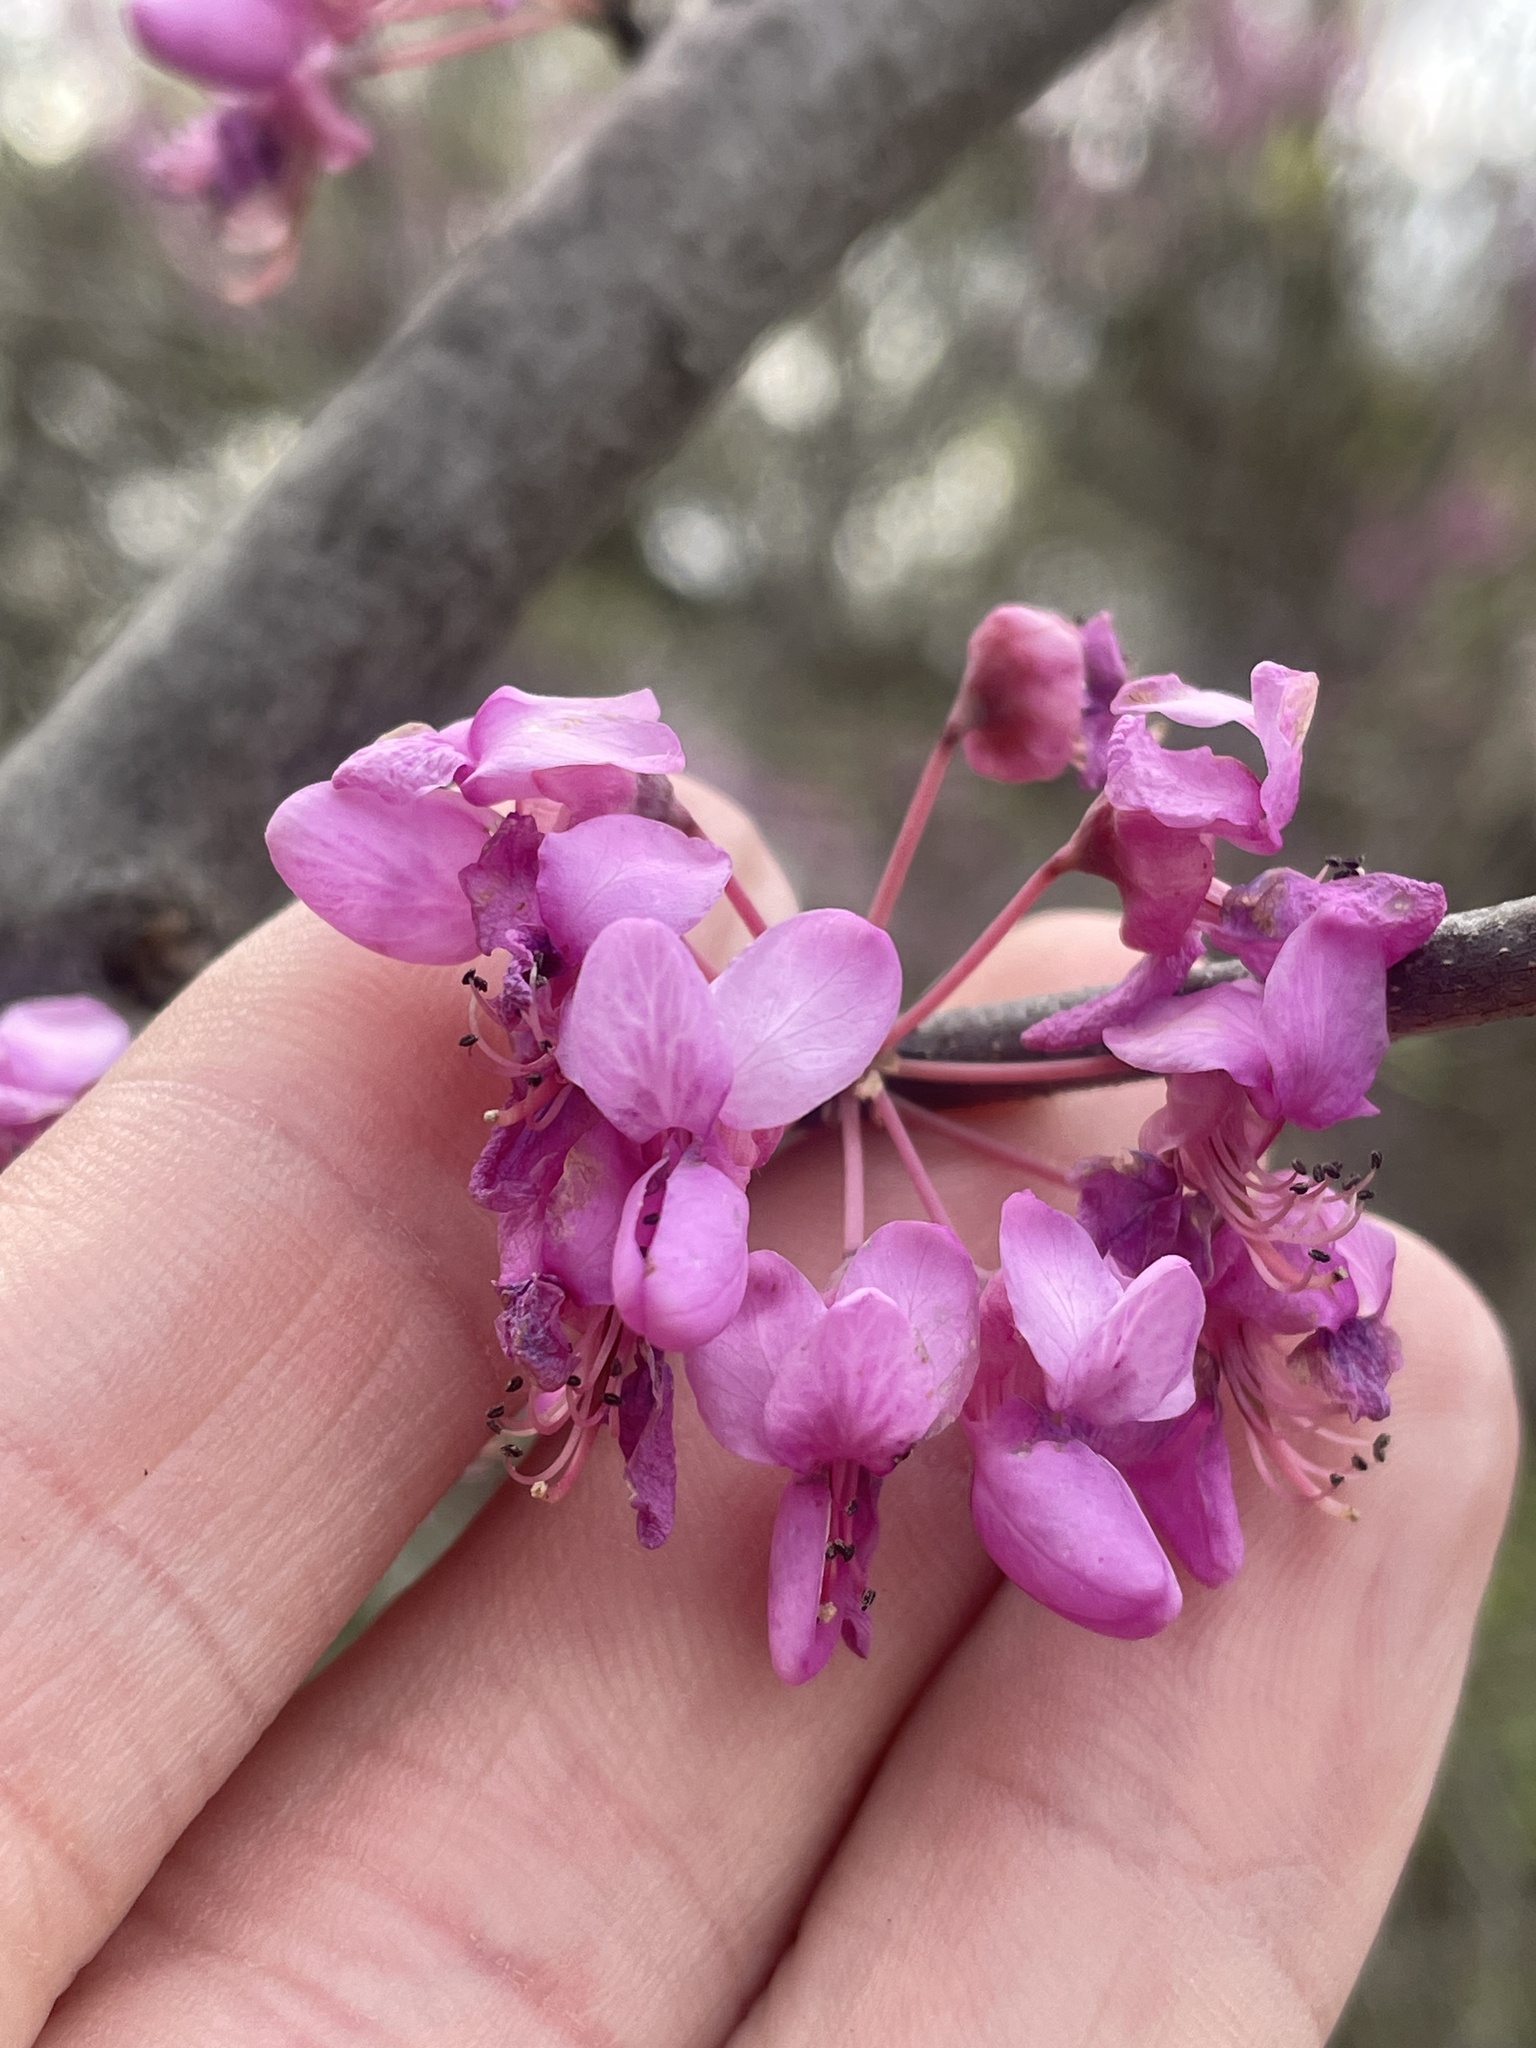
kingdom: Plantae
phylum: Tracheophyta
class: Magnoliopsida
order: Fabales
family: Fabaceae
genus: Cercis
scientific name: Cercis canadensis
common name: Eastern redbud
